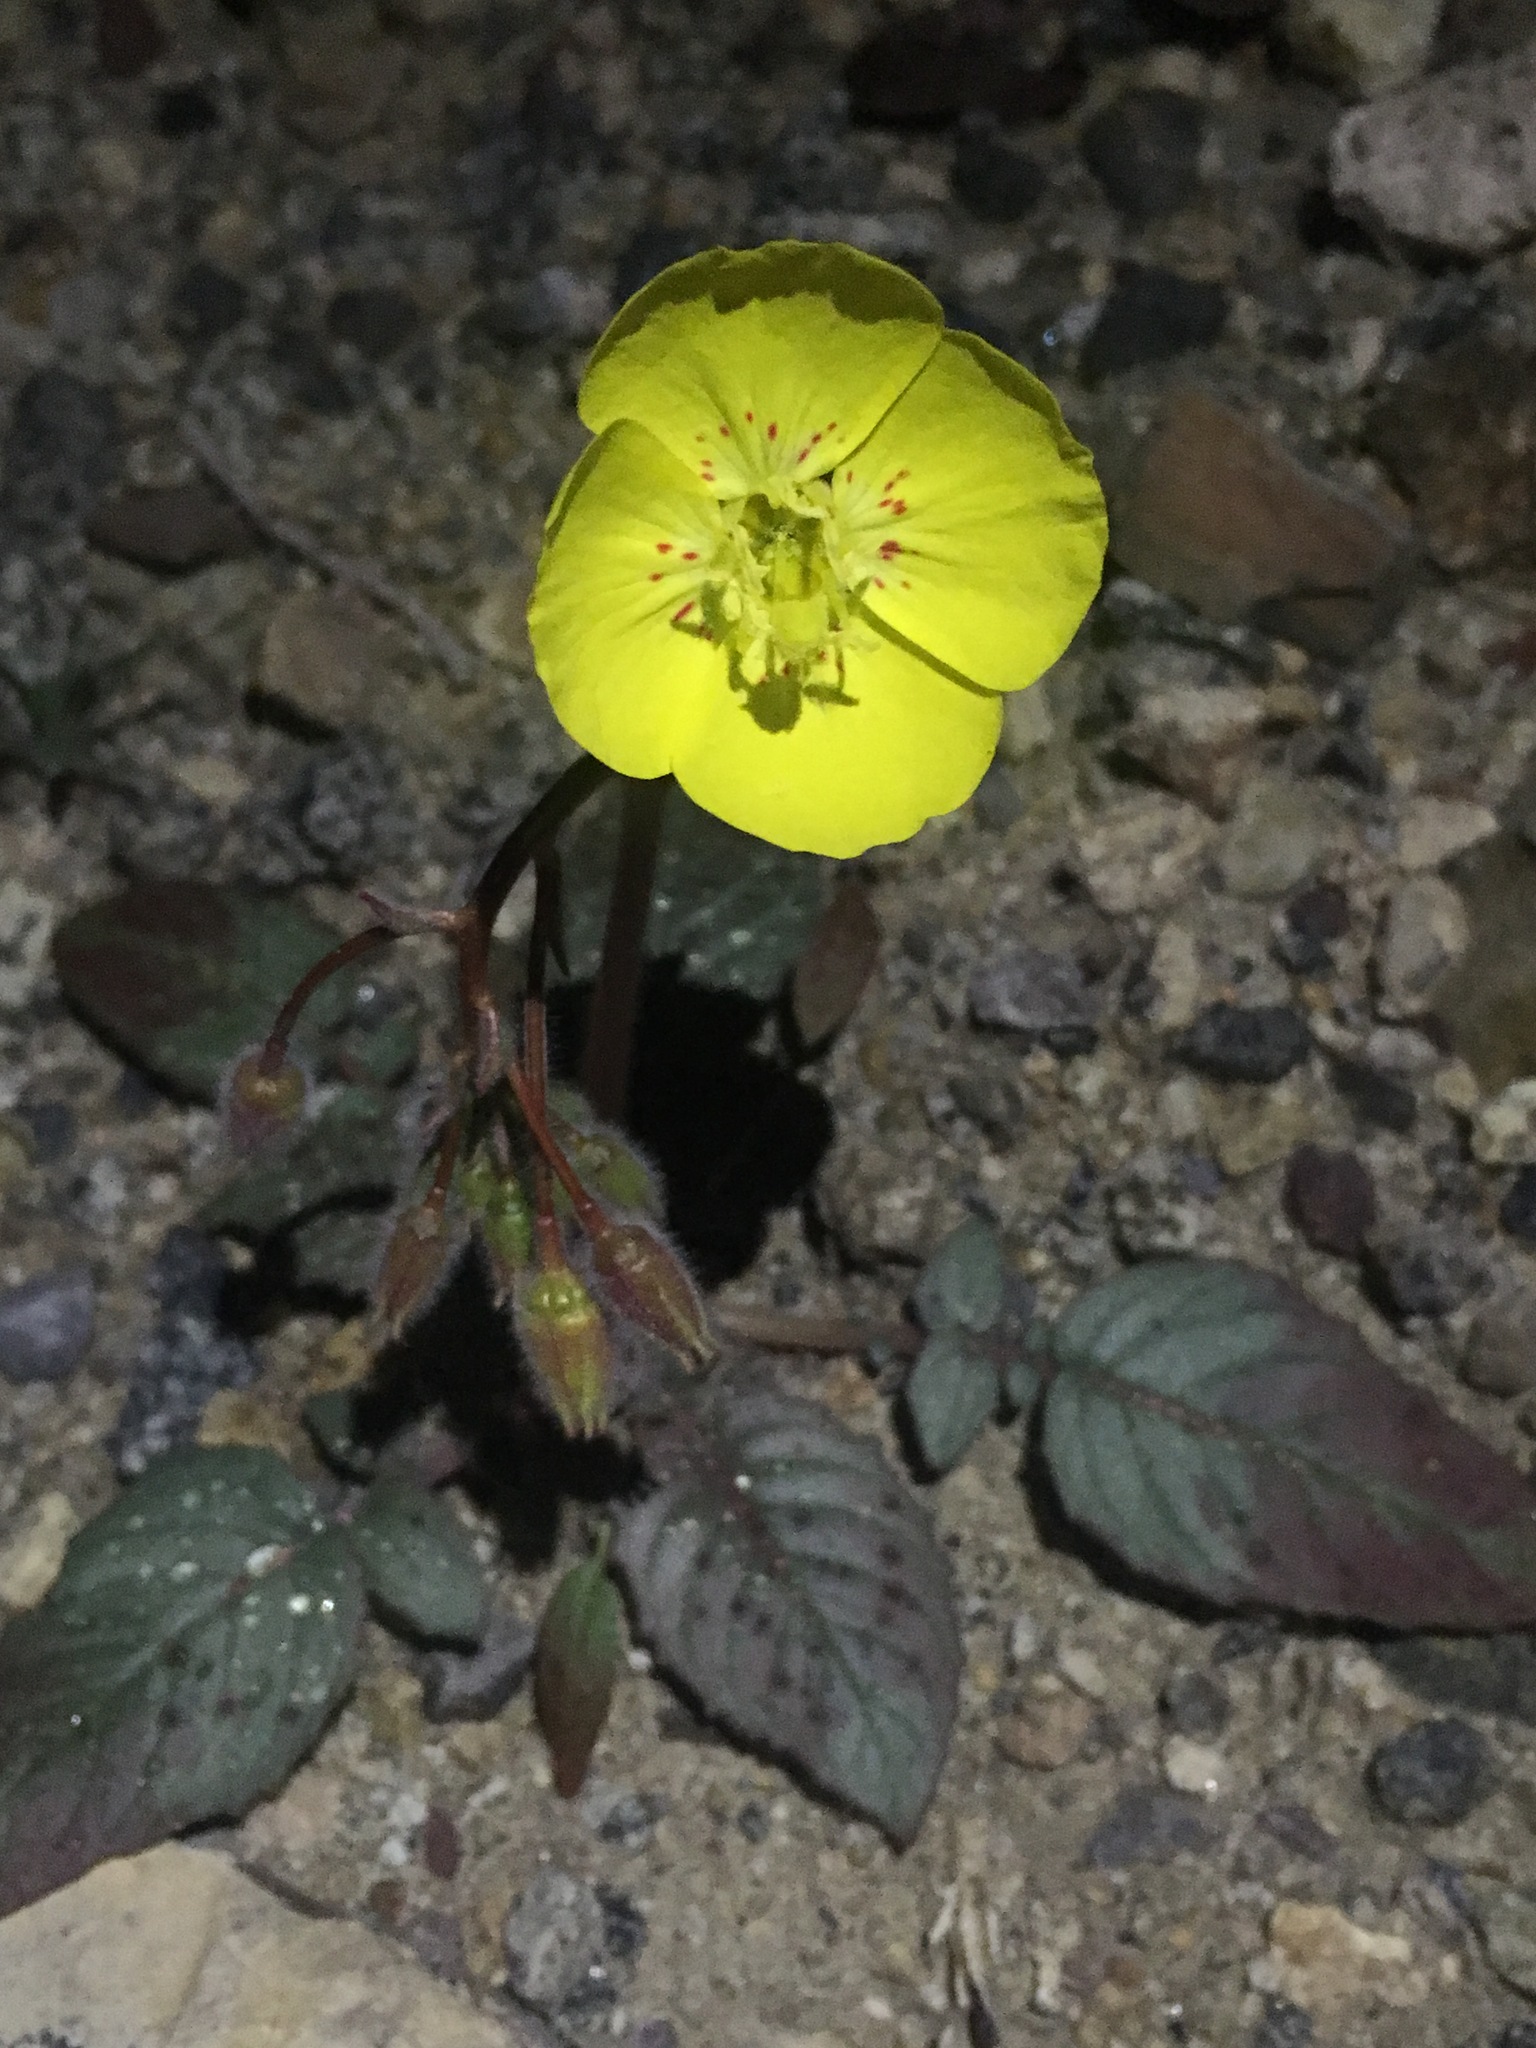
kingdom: Plantae
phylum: Tracheophyta
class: Magnoliopsida
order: Myrtales
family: Onagraceae
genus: Chylismia
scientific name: Chylismia brevipes
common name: Yellow cups
